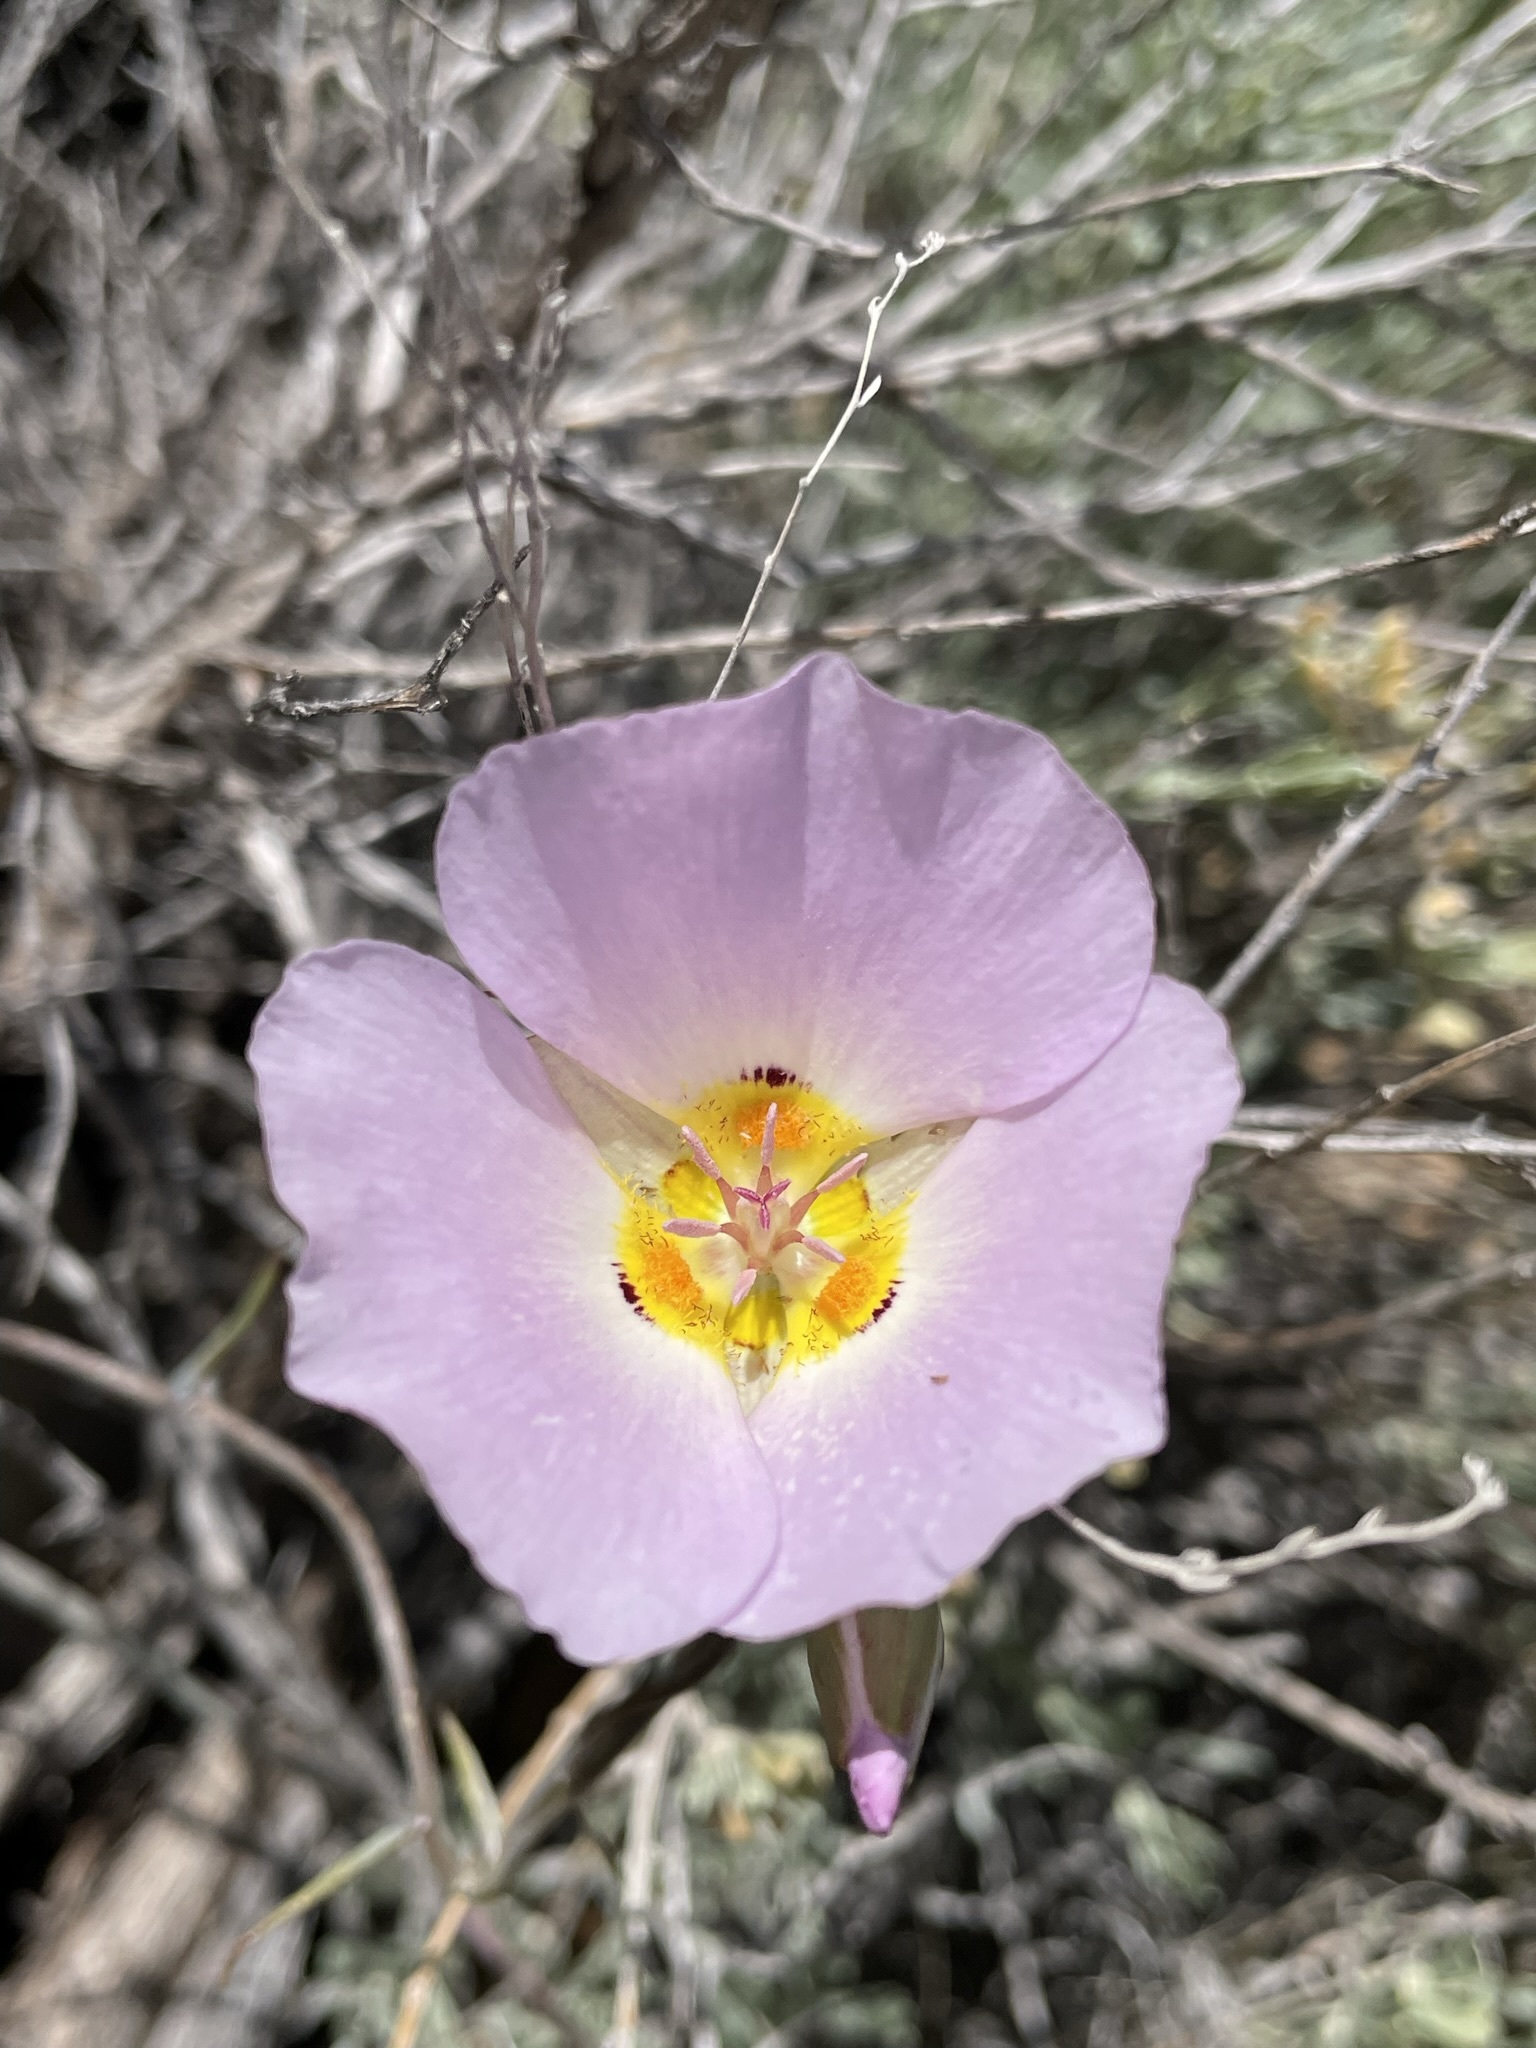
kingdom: Plantae
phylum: Tracheophyta
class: Liliopsida
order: Liliales
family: Liliaceae
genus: Calochortus
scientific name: Calochortus flexuosus
